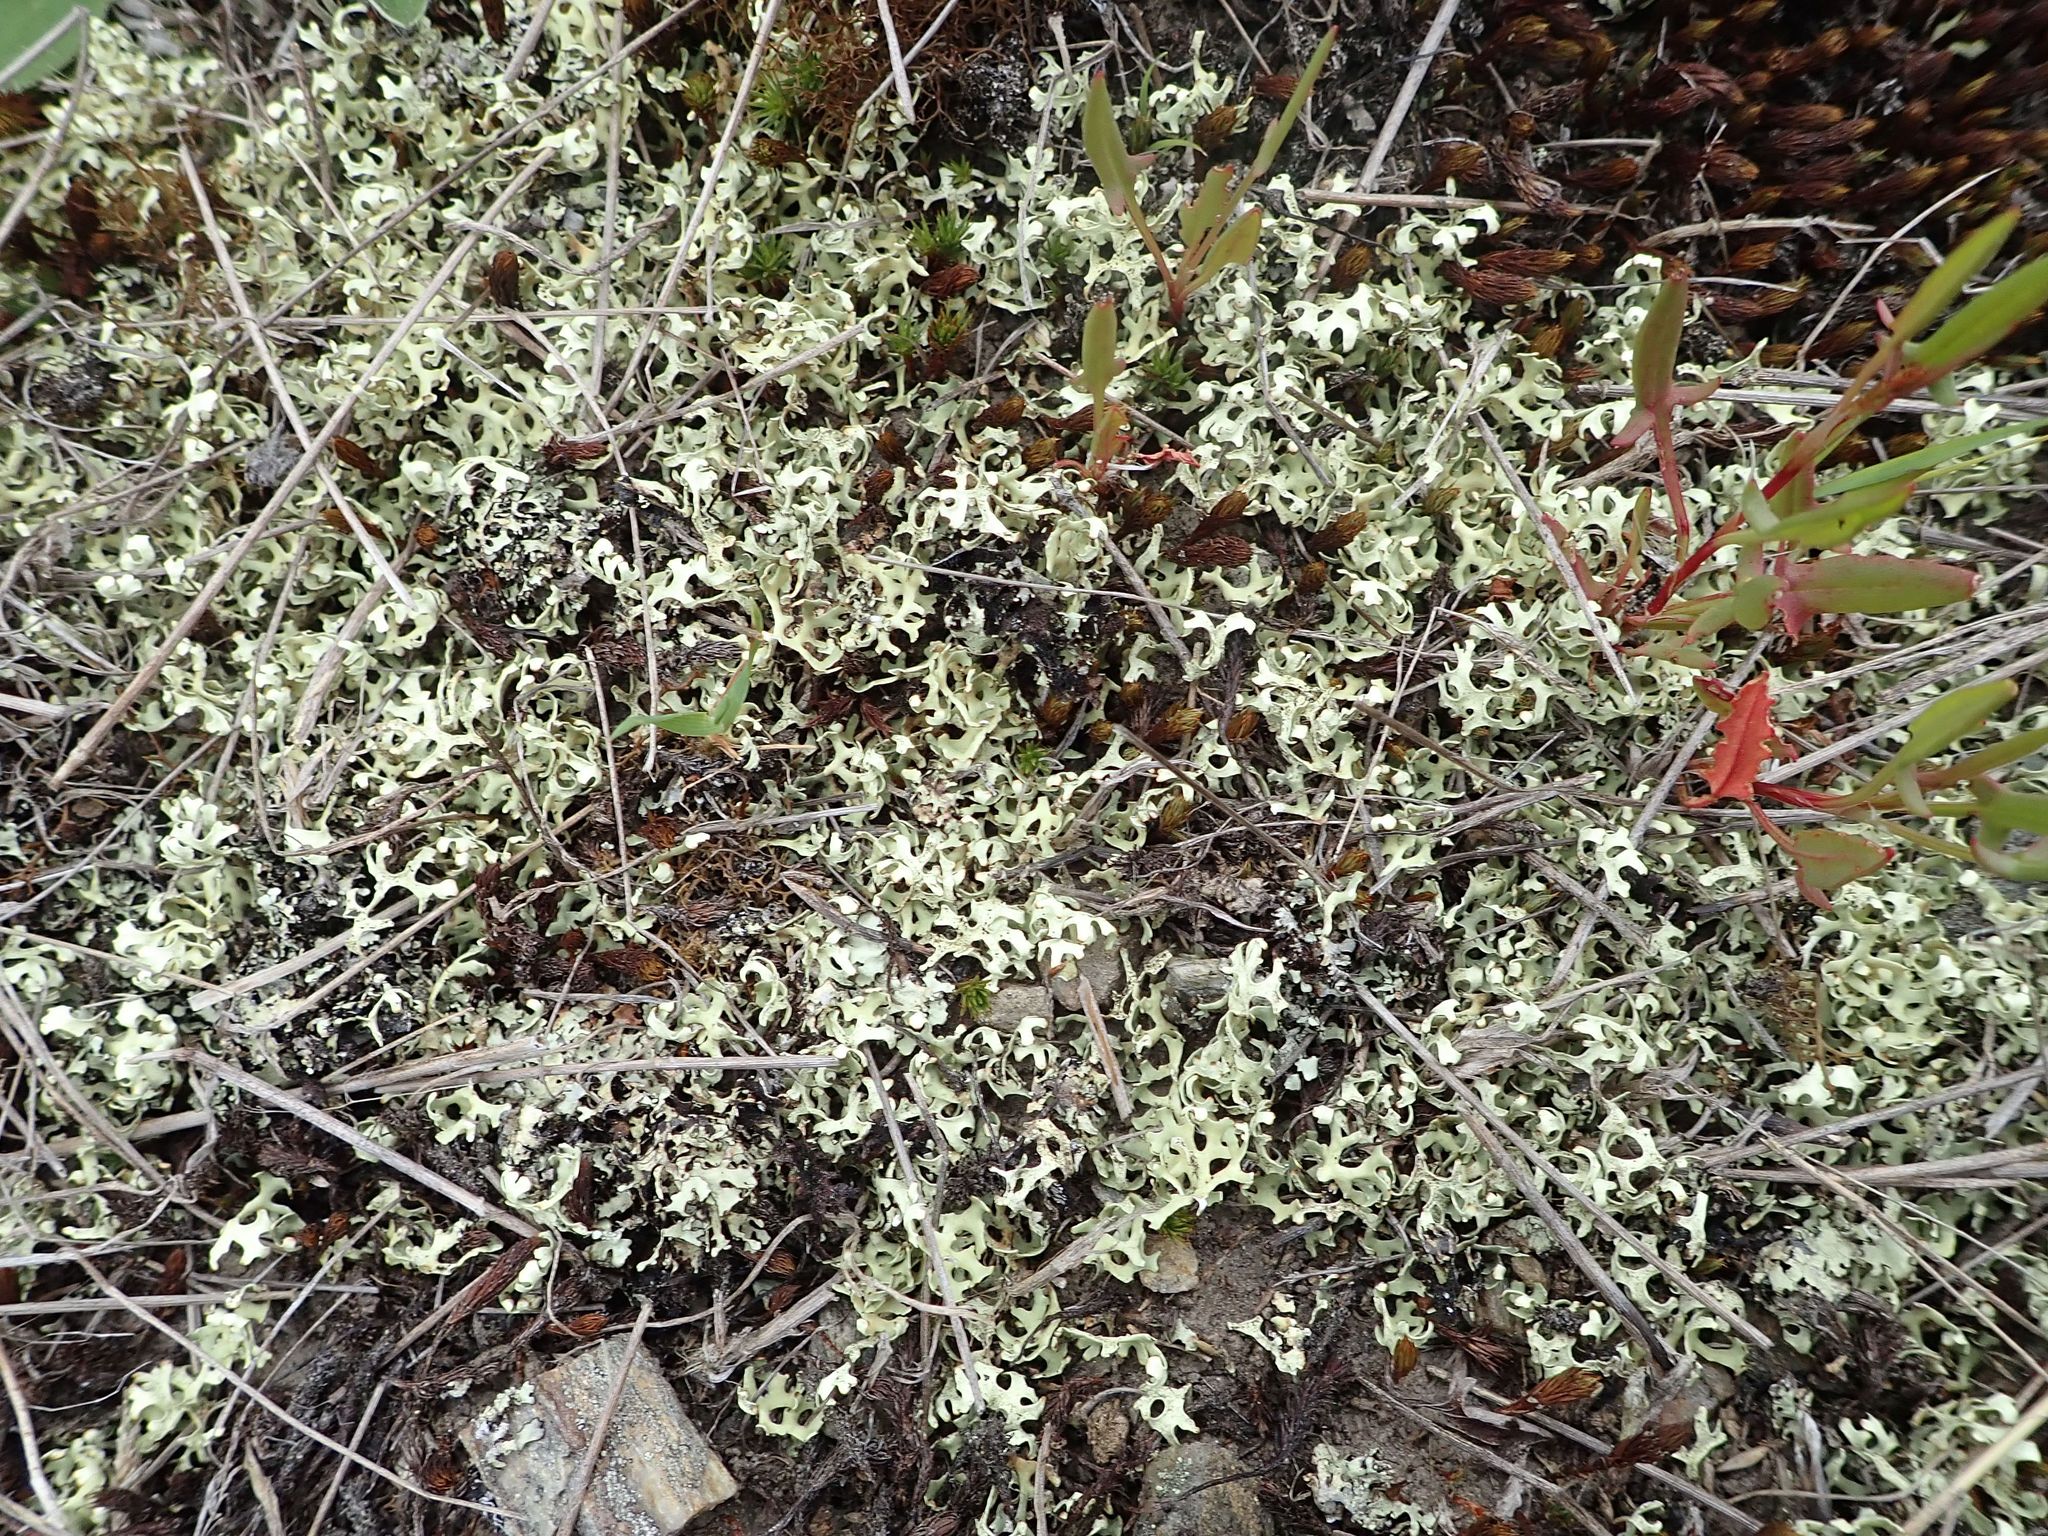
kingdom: Fungi
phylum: Ascomycota
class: Lecanoromycetes
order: Lecanorales
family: Parmeliaceae
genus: Xanthoparmelia
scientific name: Xanthoparmelia semiviridis
